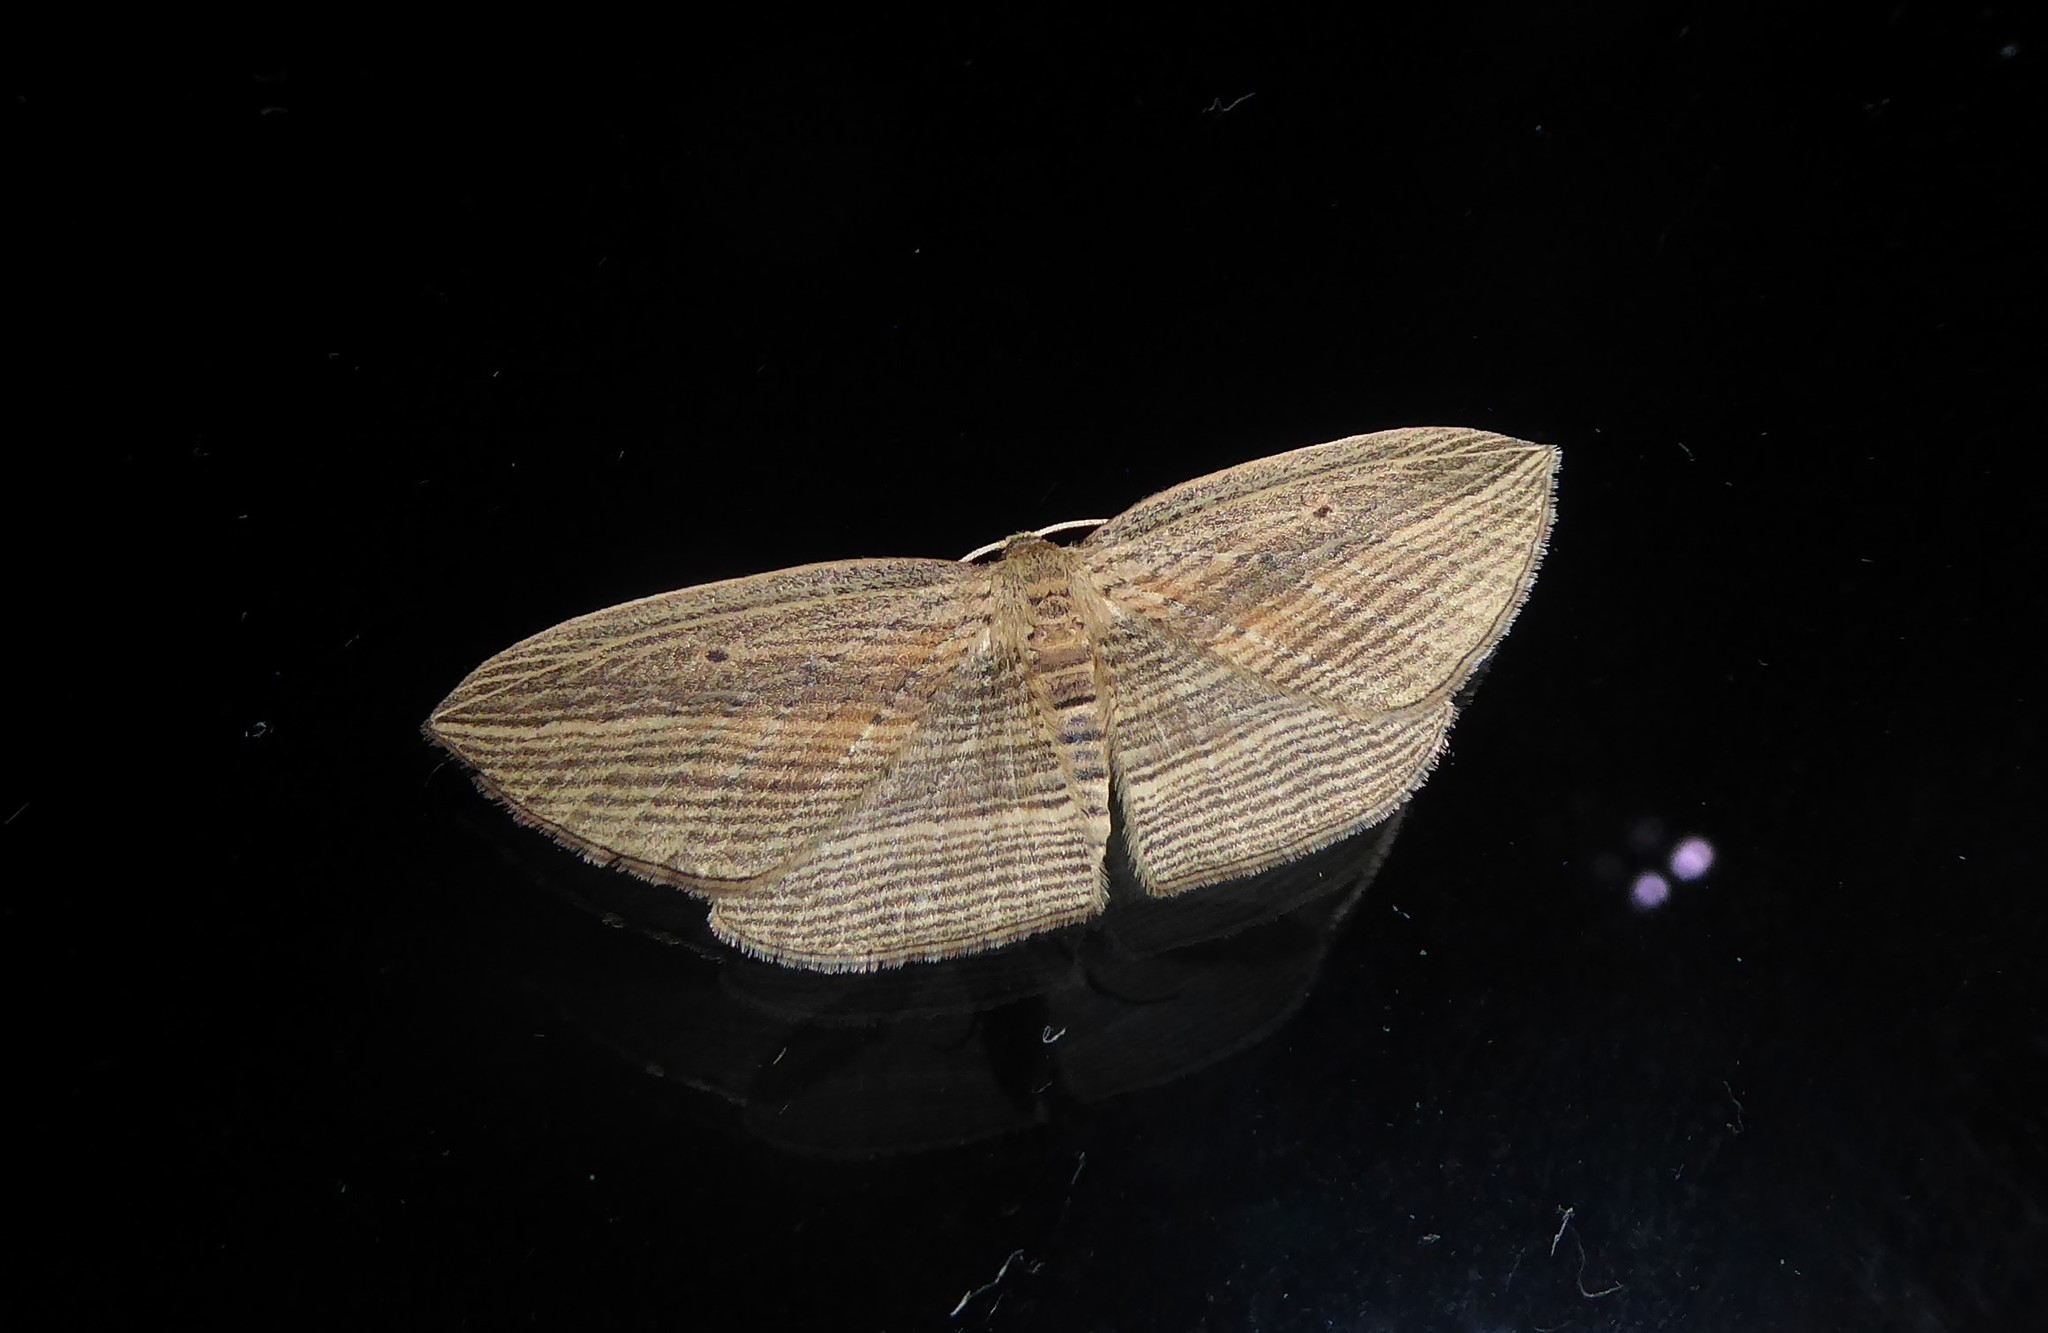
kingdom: Animalia
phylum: Arthropoda
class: Insecta
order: Lepidoptera
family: Geometridae
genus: Epiphryne
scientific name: Epiphryne verriculata
